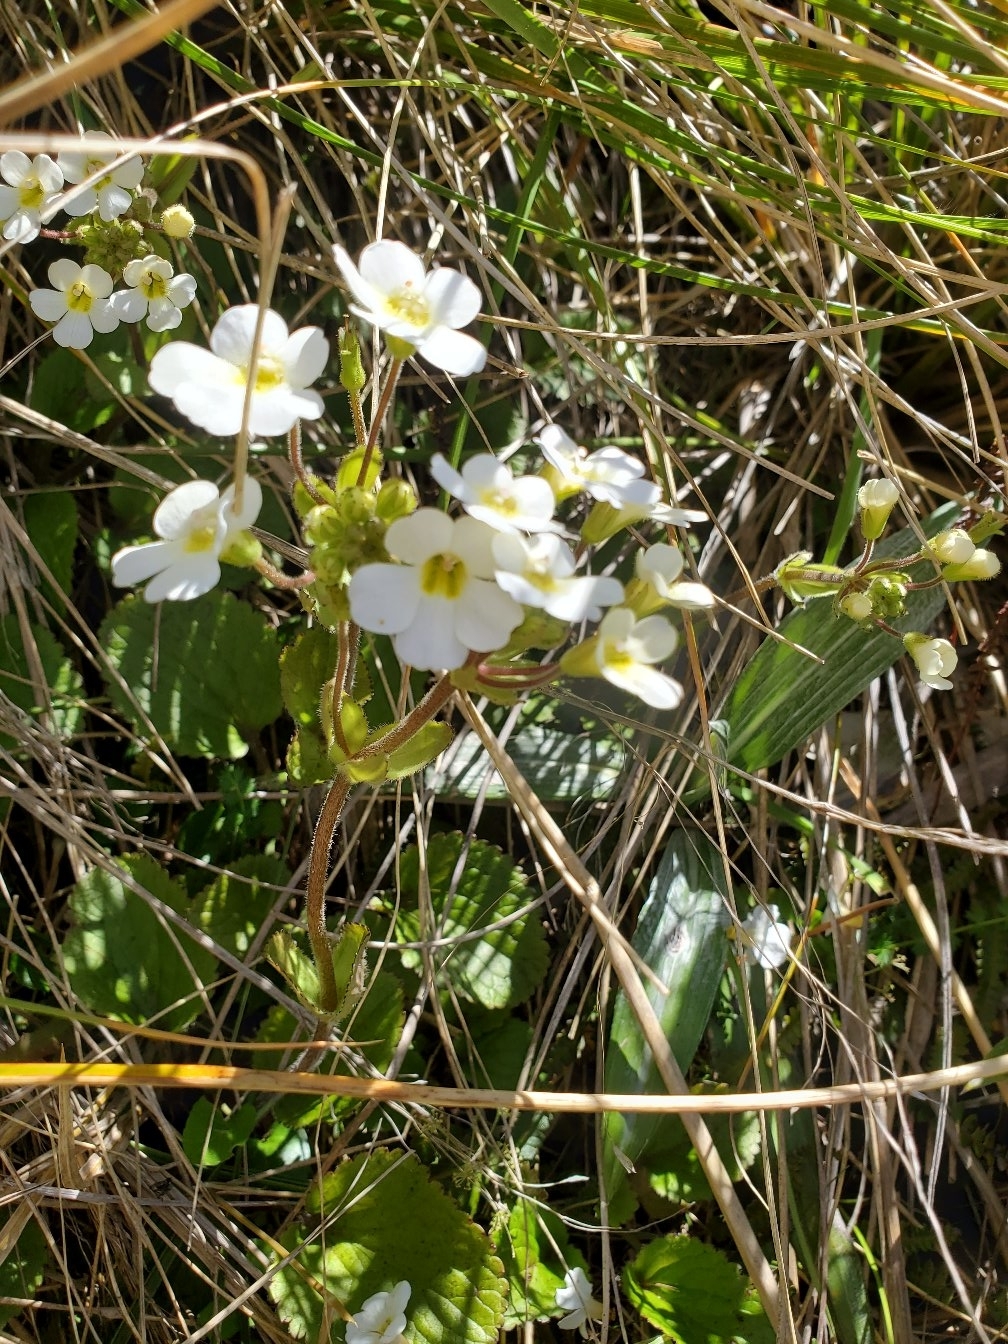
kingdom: Plantae
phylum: Tracheophyta
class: Magnoliopsida
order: Lamiales
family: Plantaginaceae
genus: Ourisia
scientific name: Ourisia macrophylla
